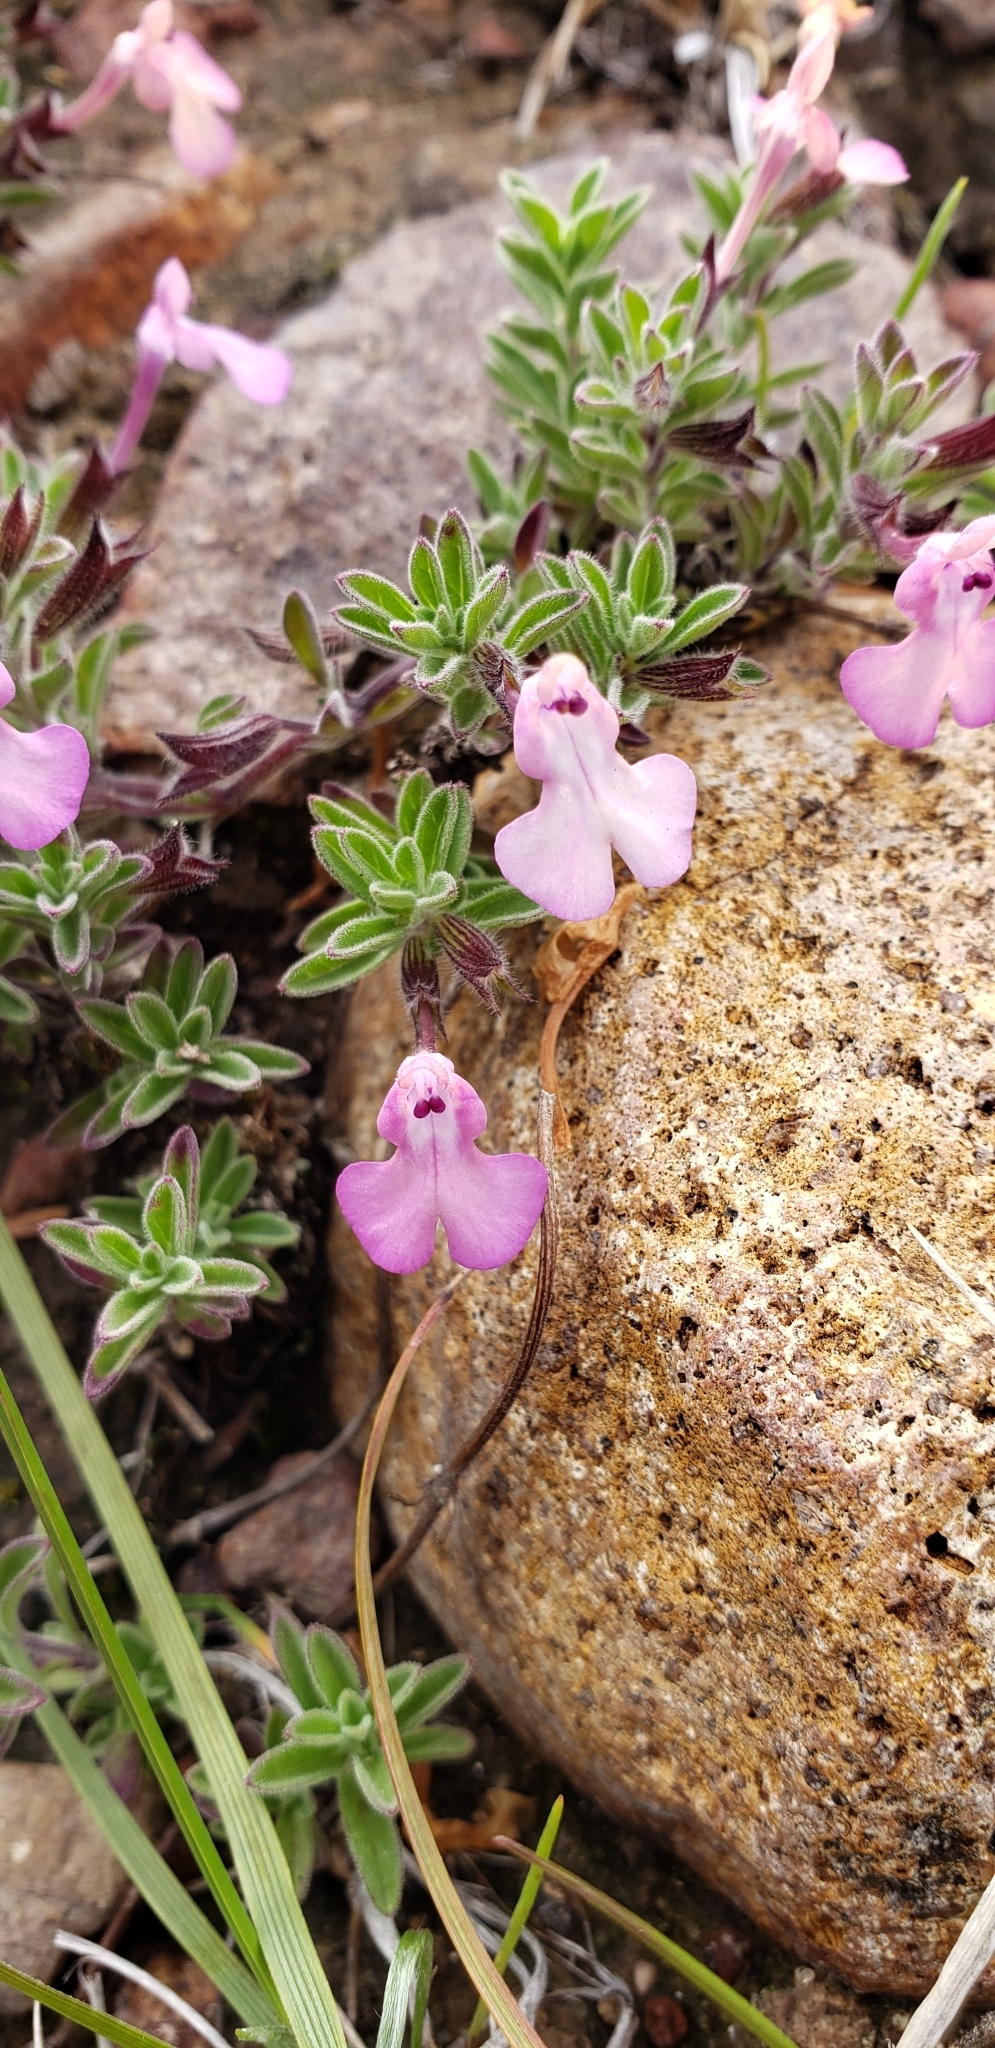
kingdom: Plantae
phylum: Tracheophyta
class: Magnoliopsida
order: Lamiales
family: Lamiaceae
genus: Salvia
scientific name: Salvia axillaris
